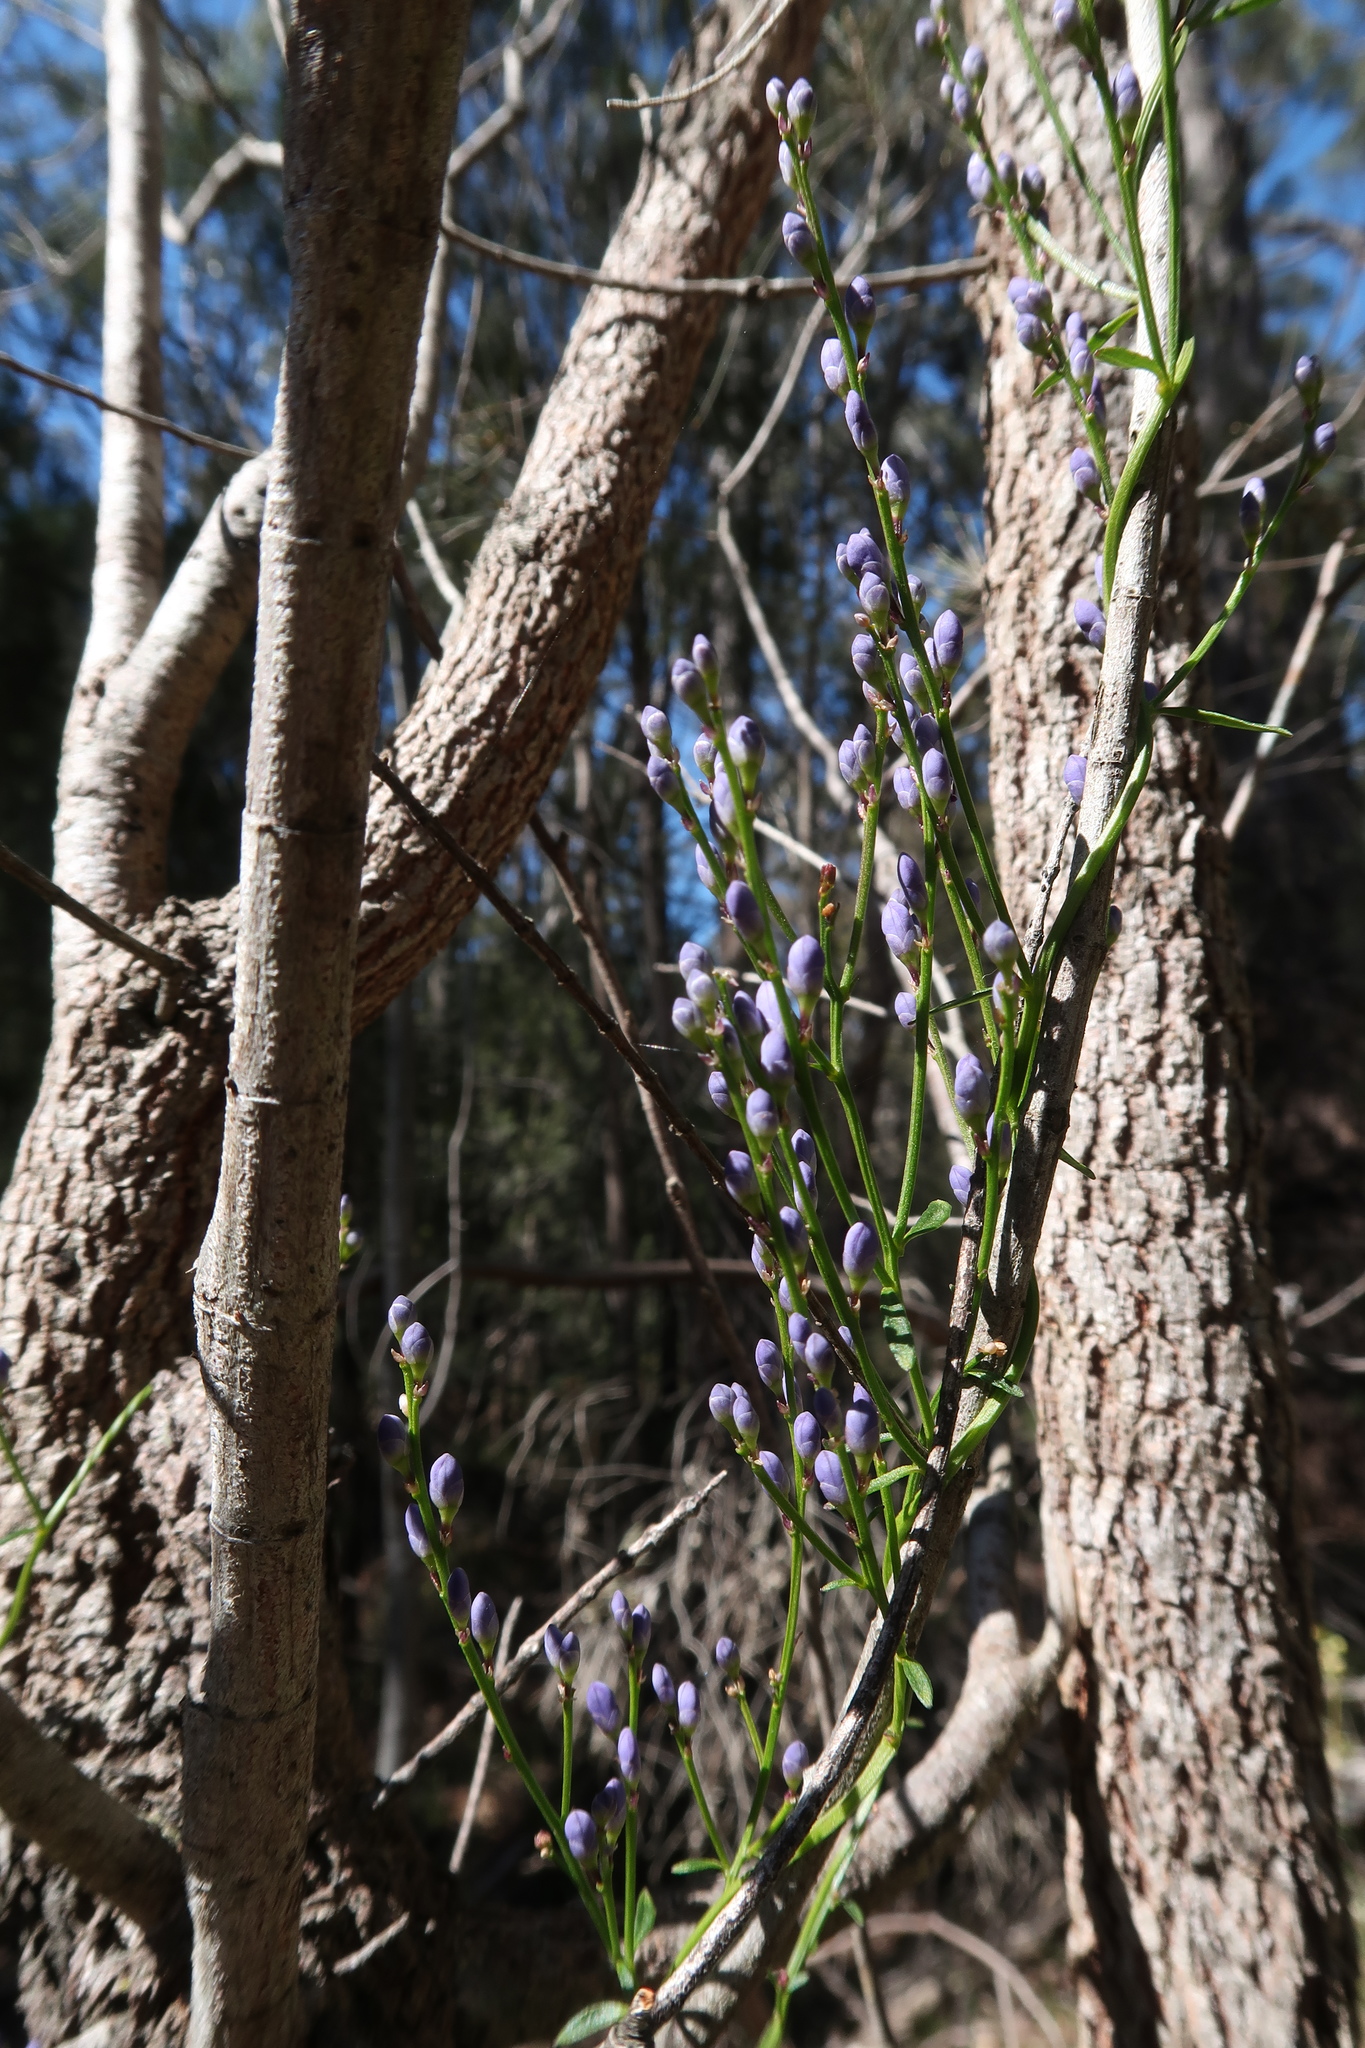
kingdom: Plantae
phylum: Tracheophyta
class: Magnoliopsida
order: Fabales
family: Polygalaceae
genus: Comesperma
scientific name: Comesperma volubile
